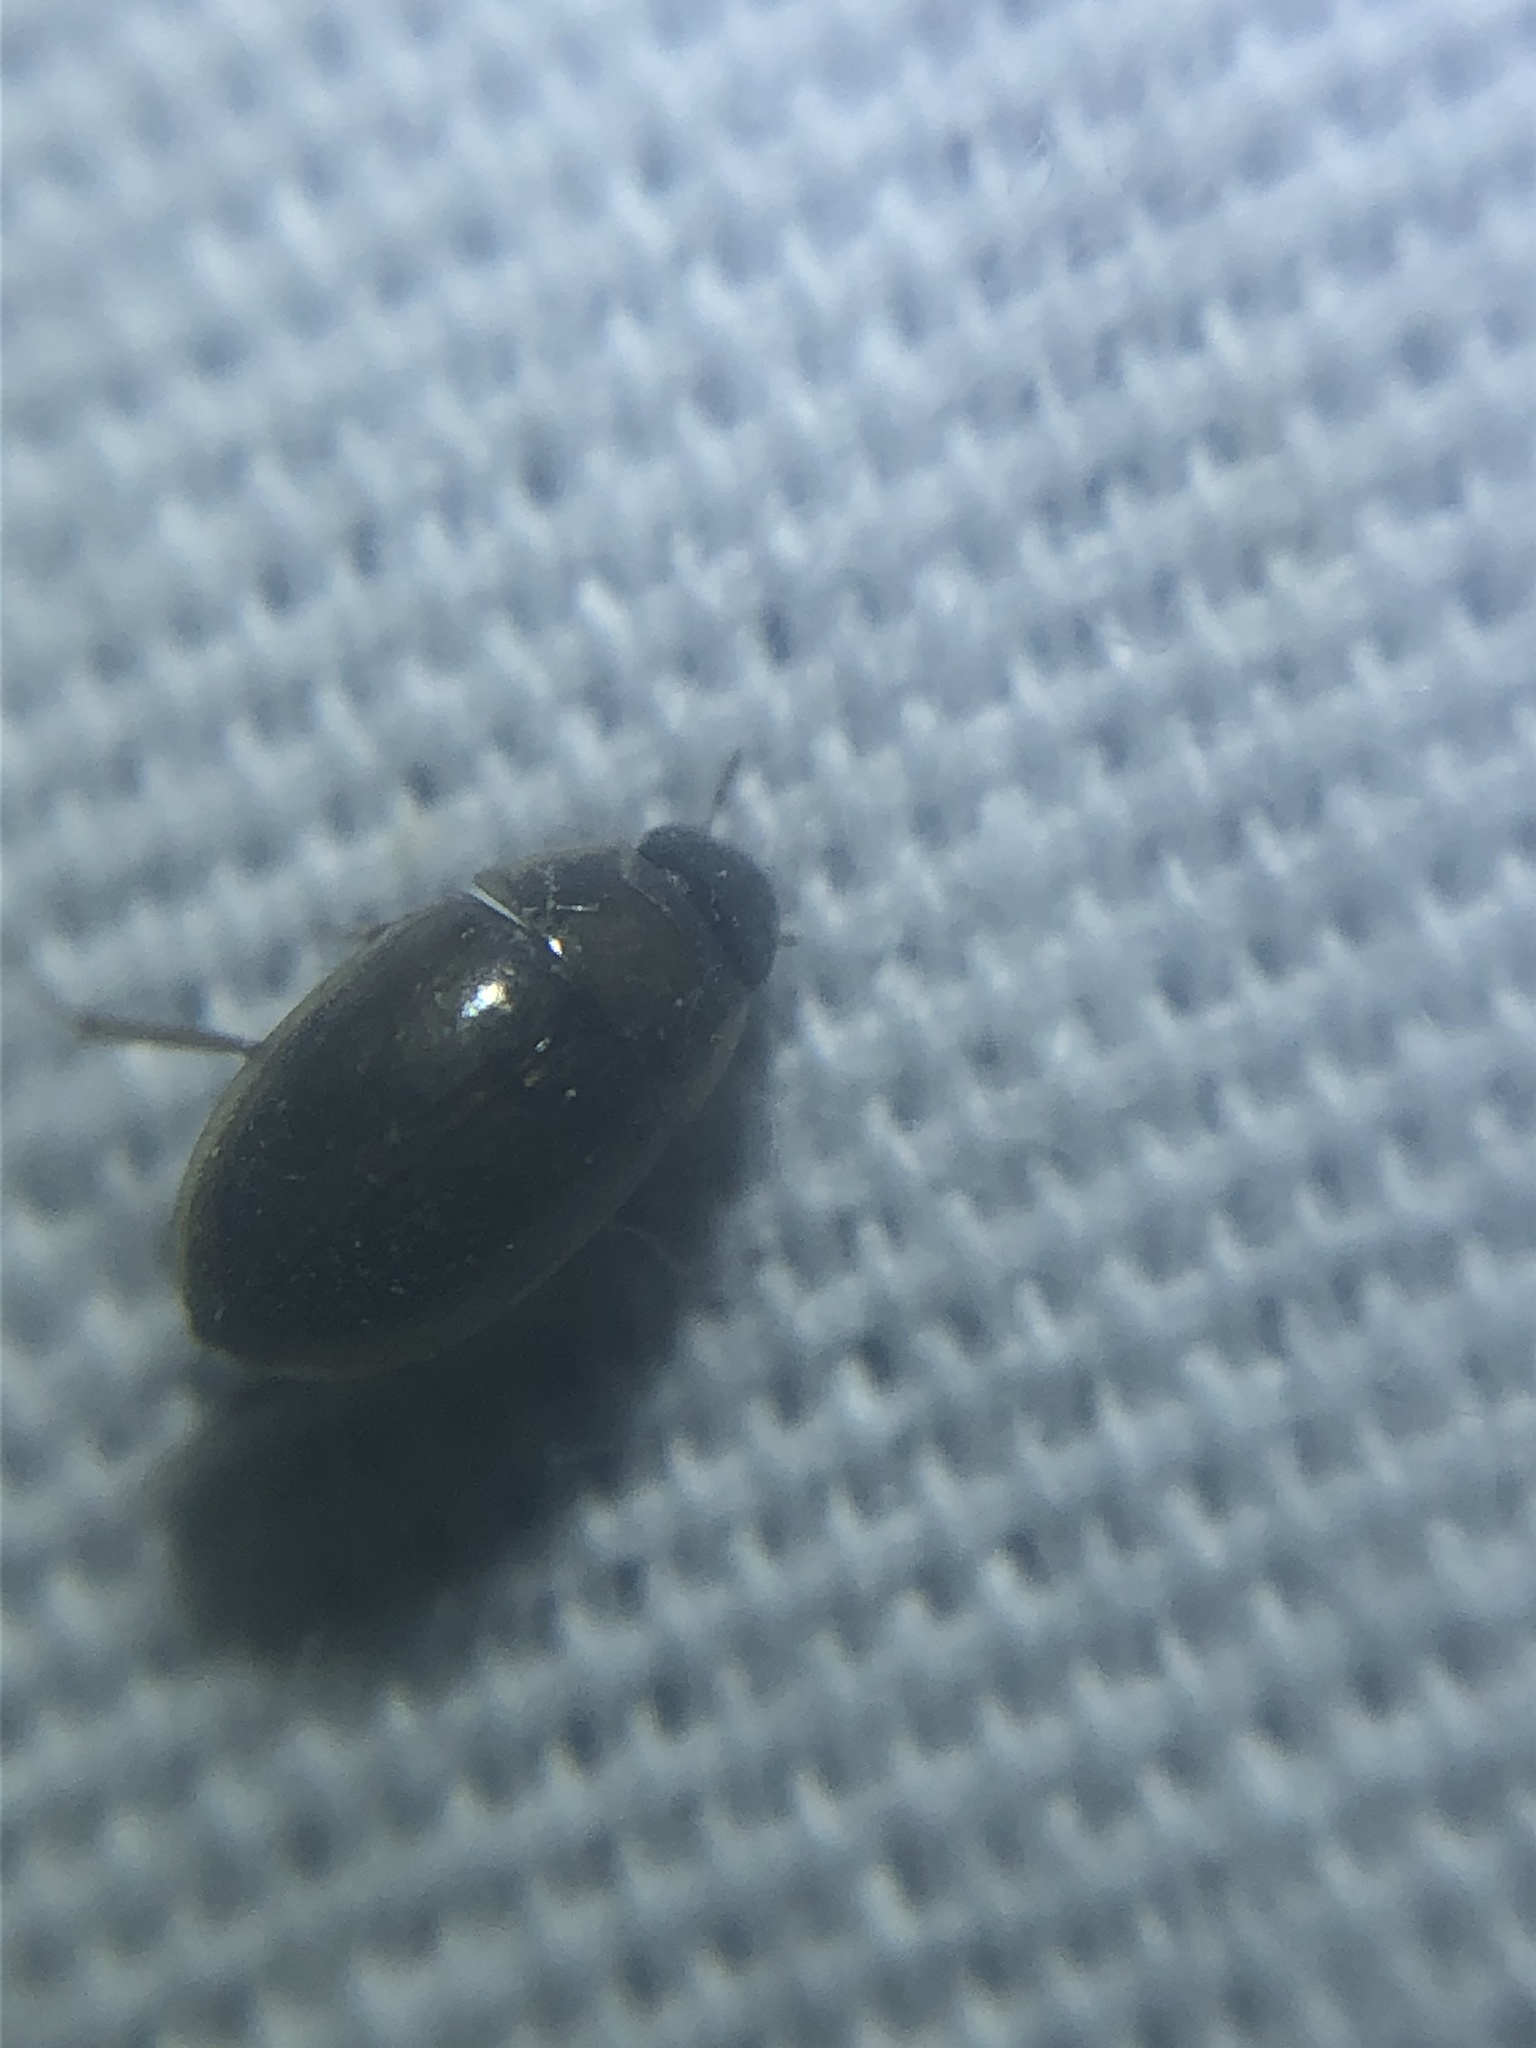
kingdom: Animalia
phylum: Arthropoda
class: Insecta
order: Coleoptera
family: Hydrophilidae
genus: Enochrus
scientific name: Enochrus
